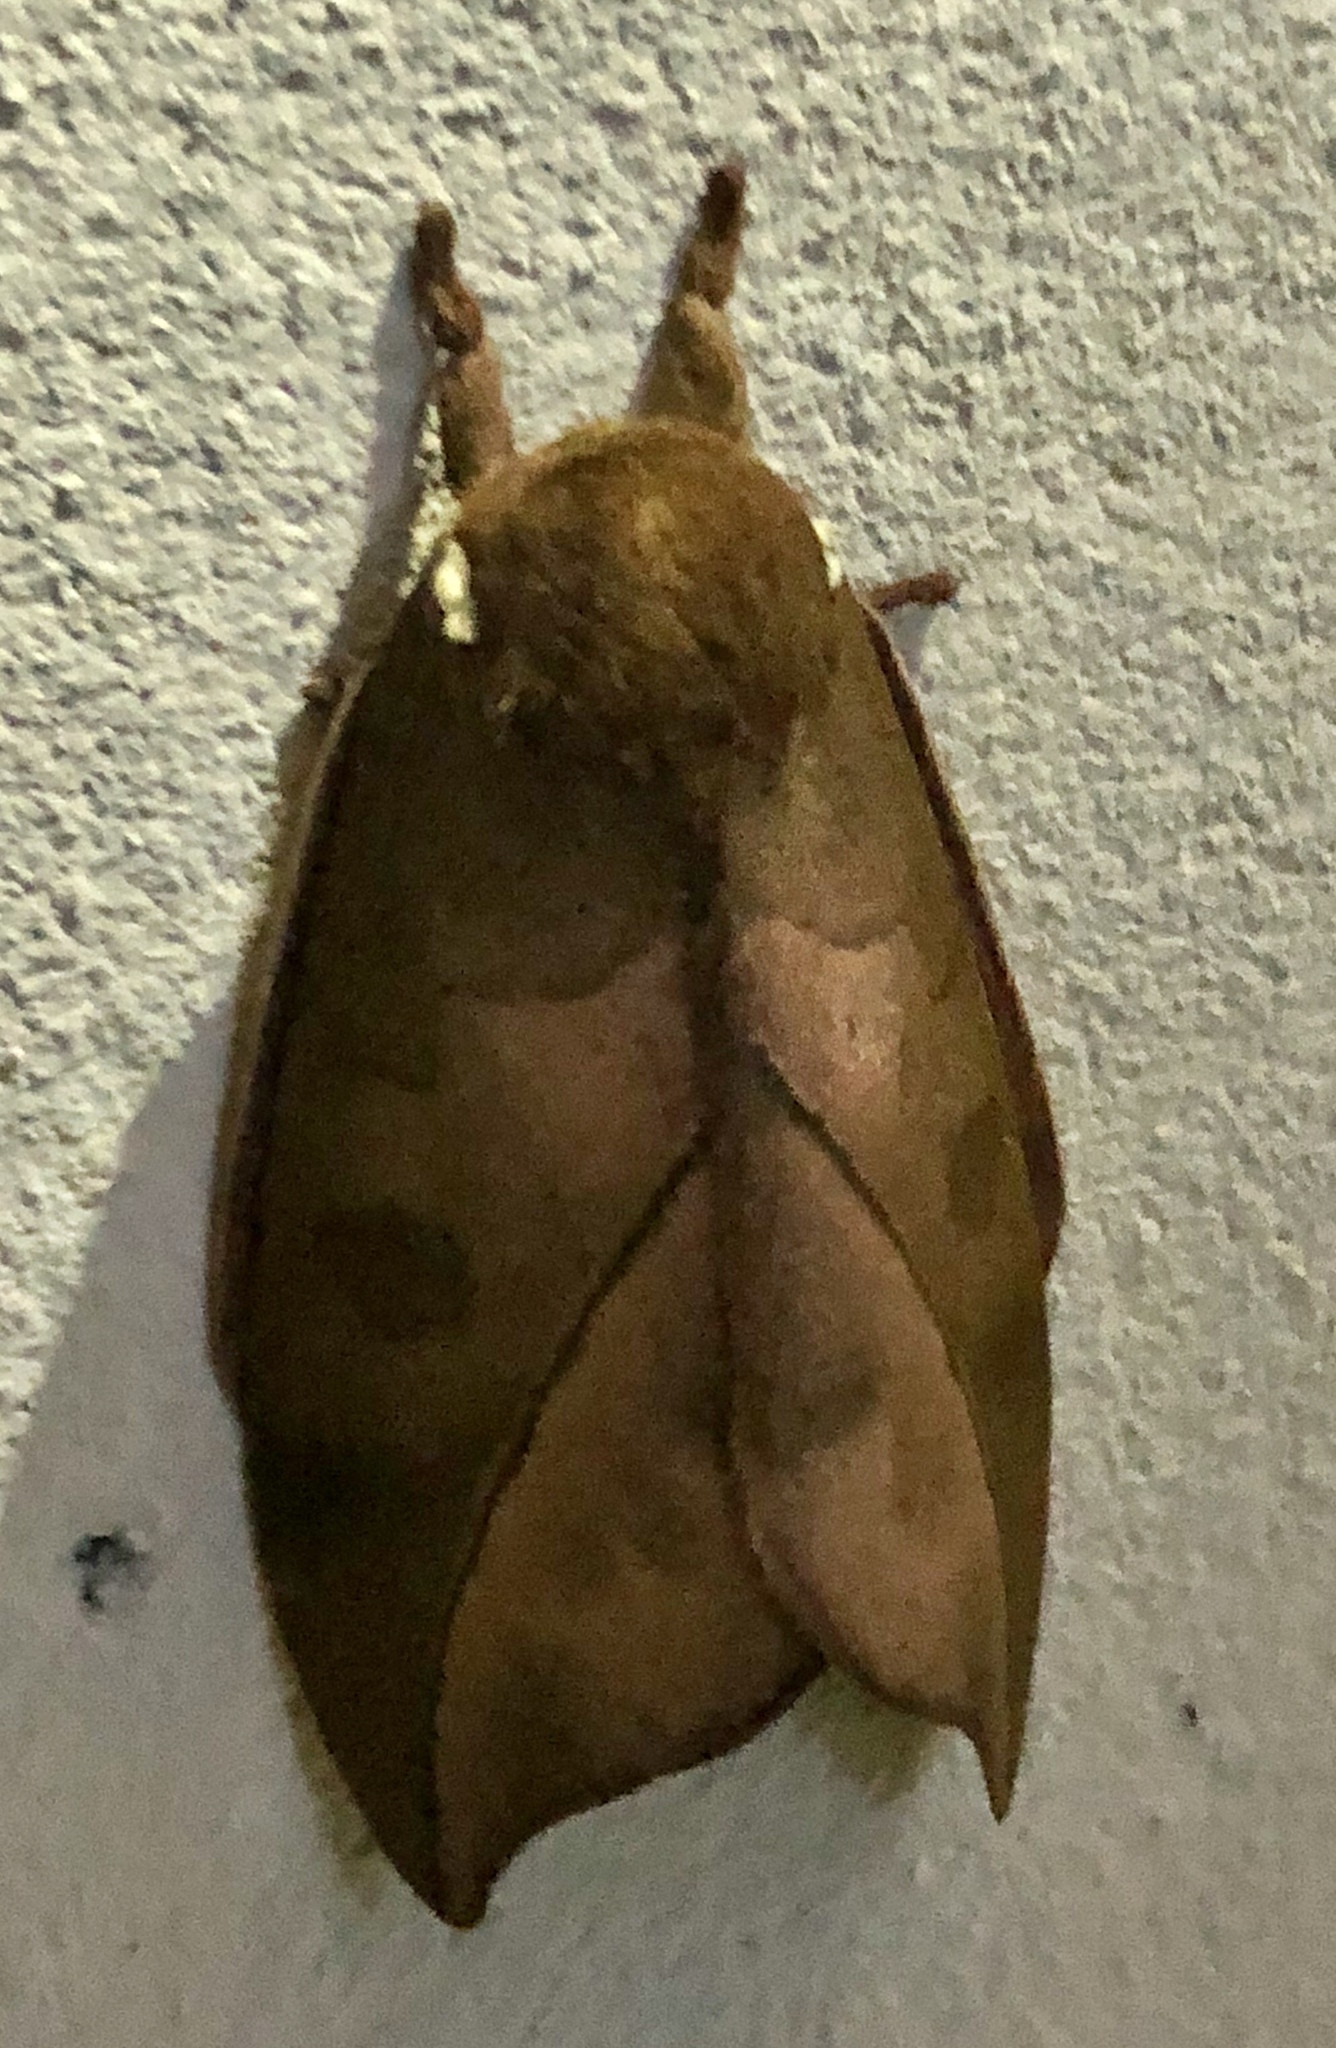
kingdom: Animalia
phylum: Arthropoda
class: Insecta
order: Lepidoptera
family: Saturniidae
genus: Automeris
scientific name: Automeris melanops
